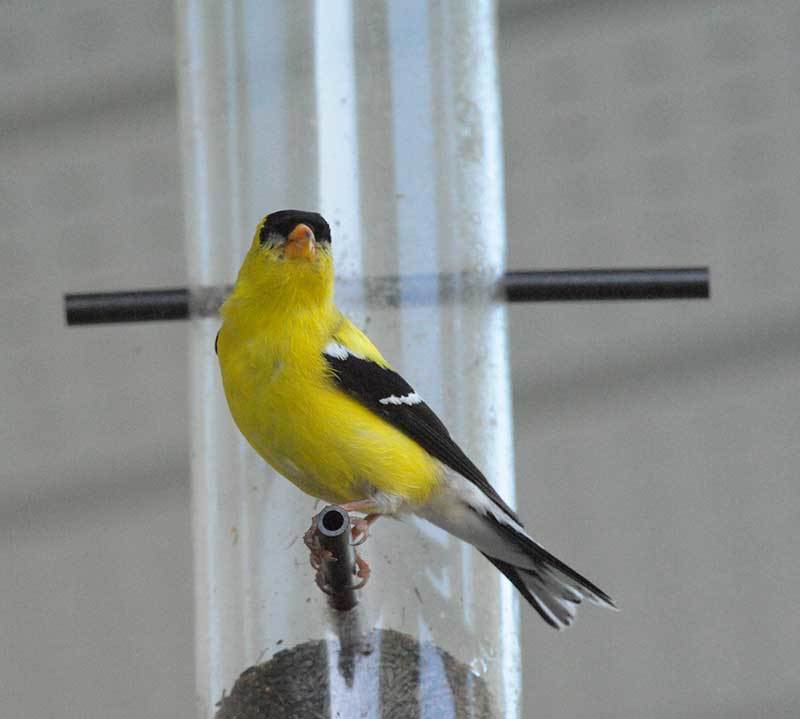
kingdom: Animalia
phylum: Chordata
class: Aves
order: Passeriformes
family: Fringillidae
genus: Spinus
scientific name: Spinus tristis
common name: American goldfinch
